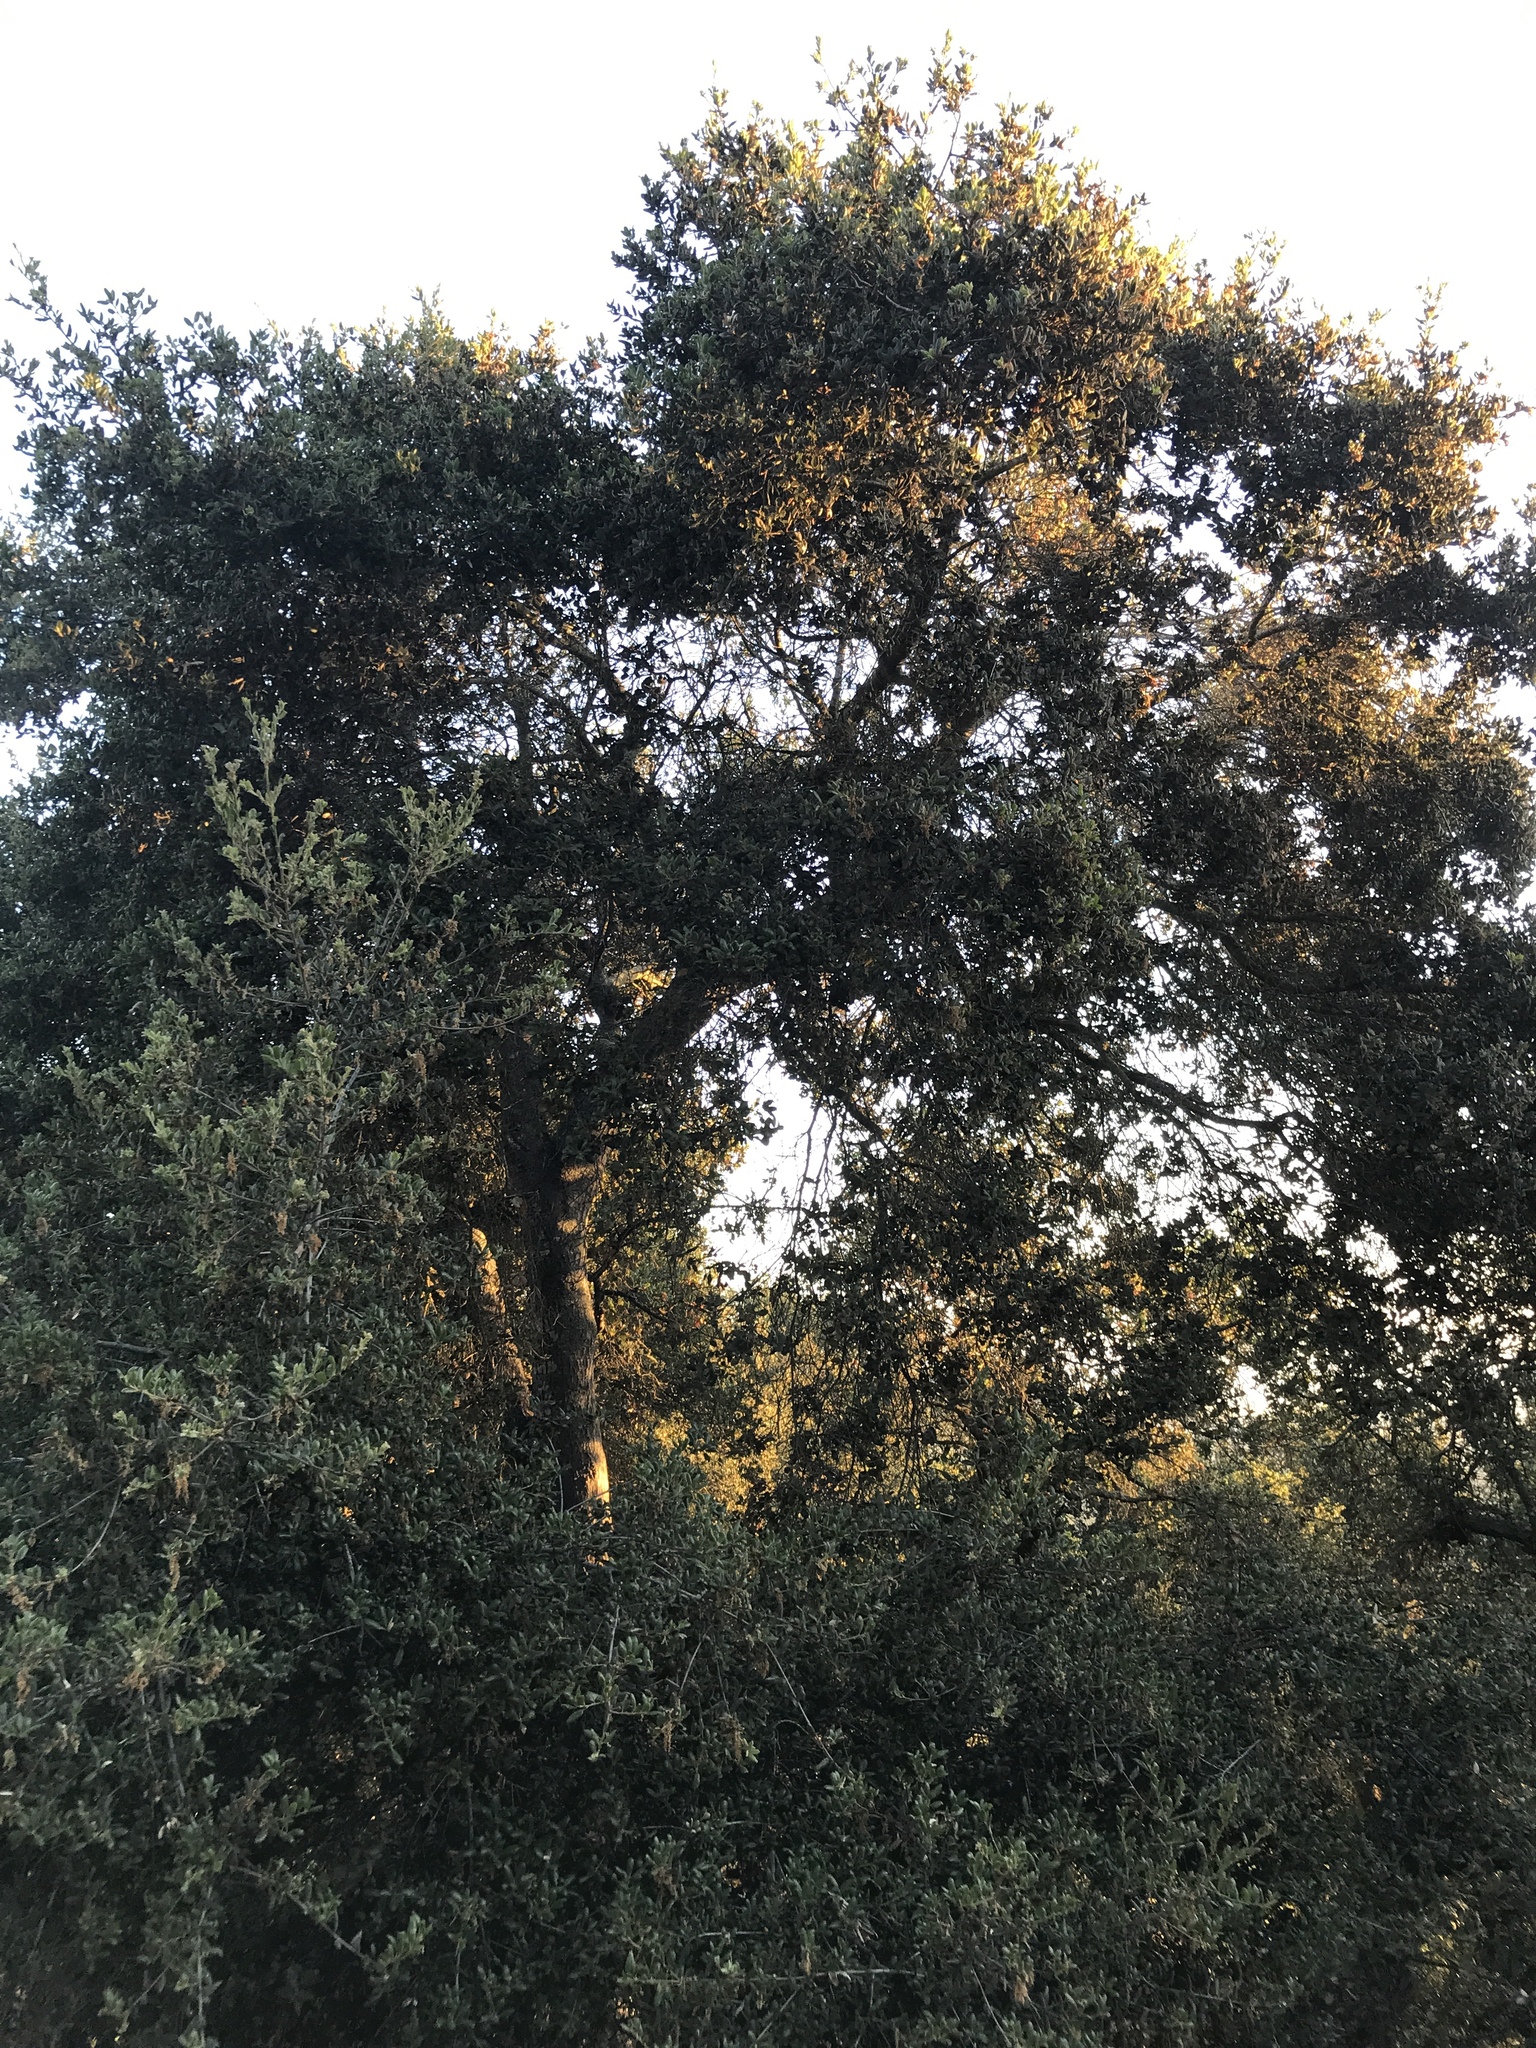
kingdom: Plantae
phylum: Tracheophyta
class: Magnoliopsida
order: Fagales
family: Fagaceae
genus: Quercus
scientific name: Quercus agrifolia
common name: California live oak
